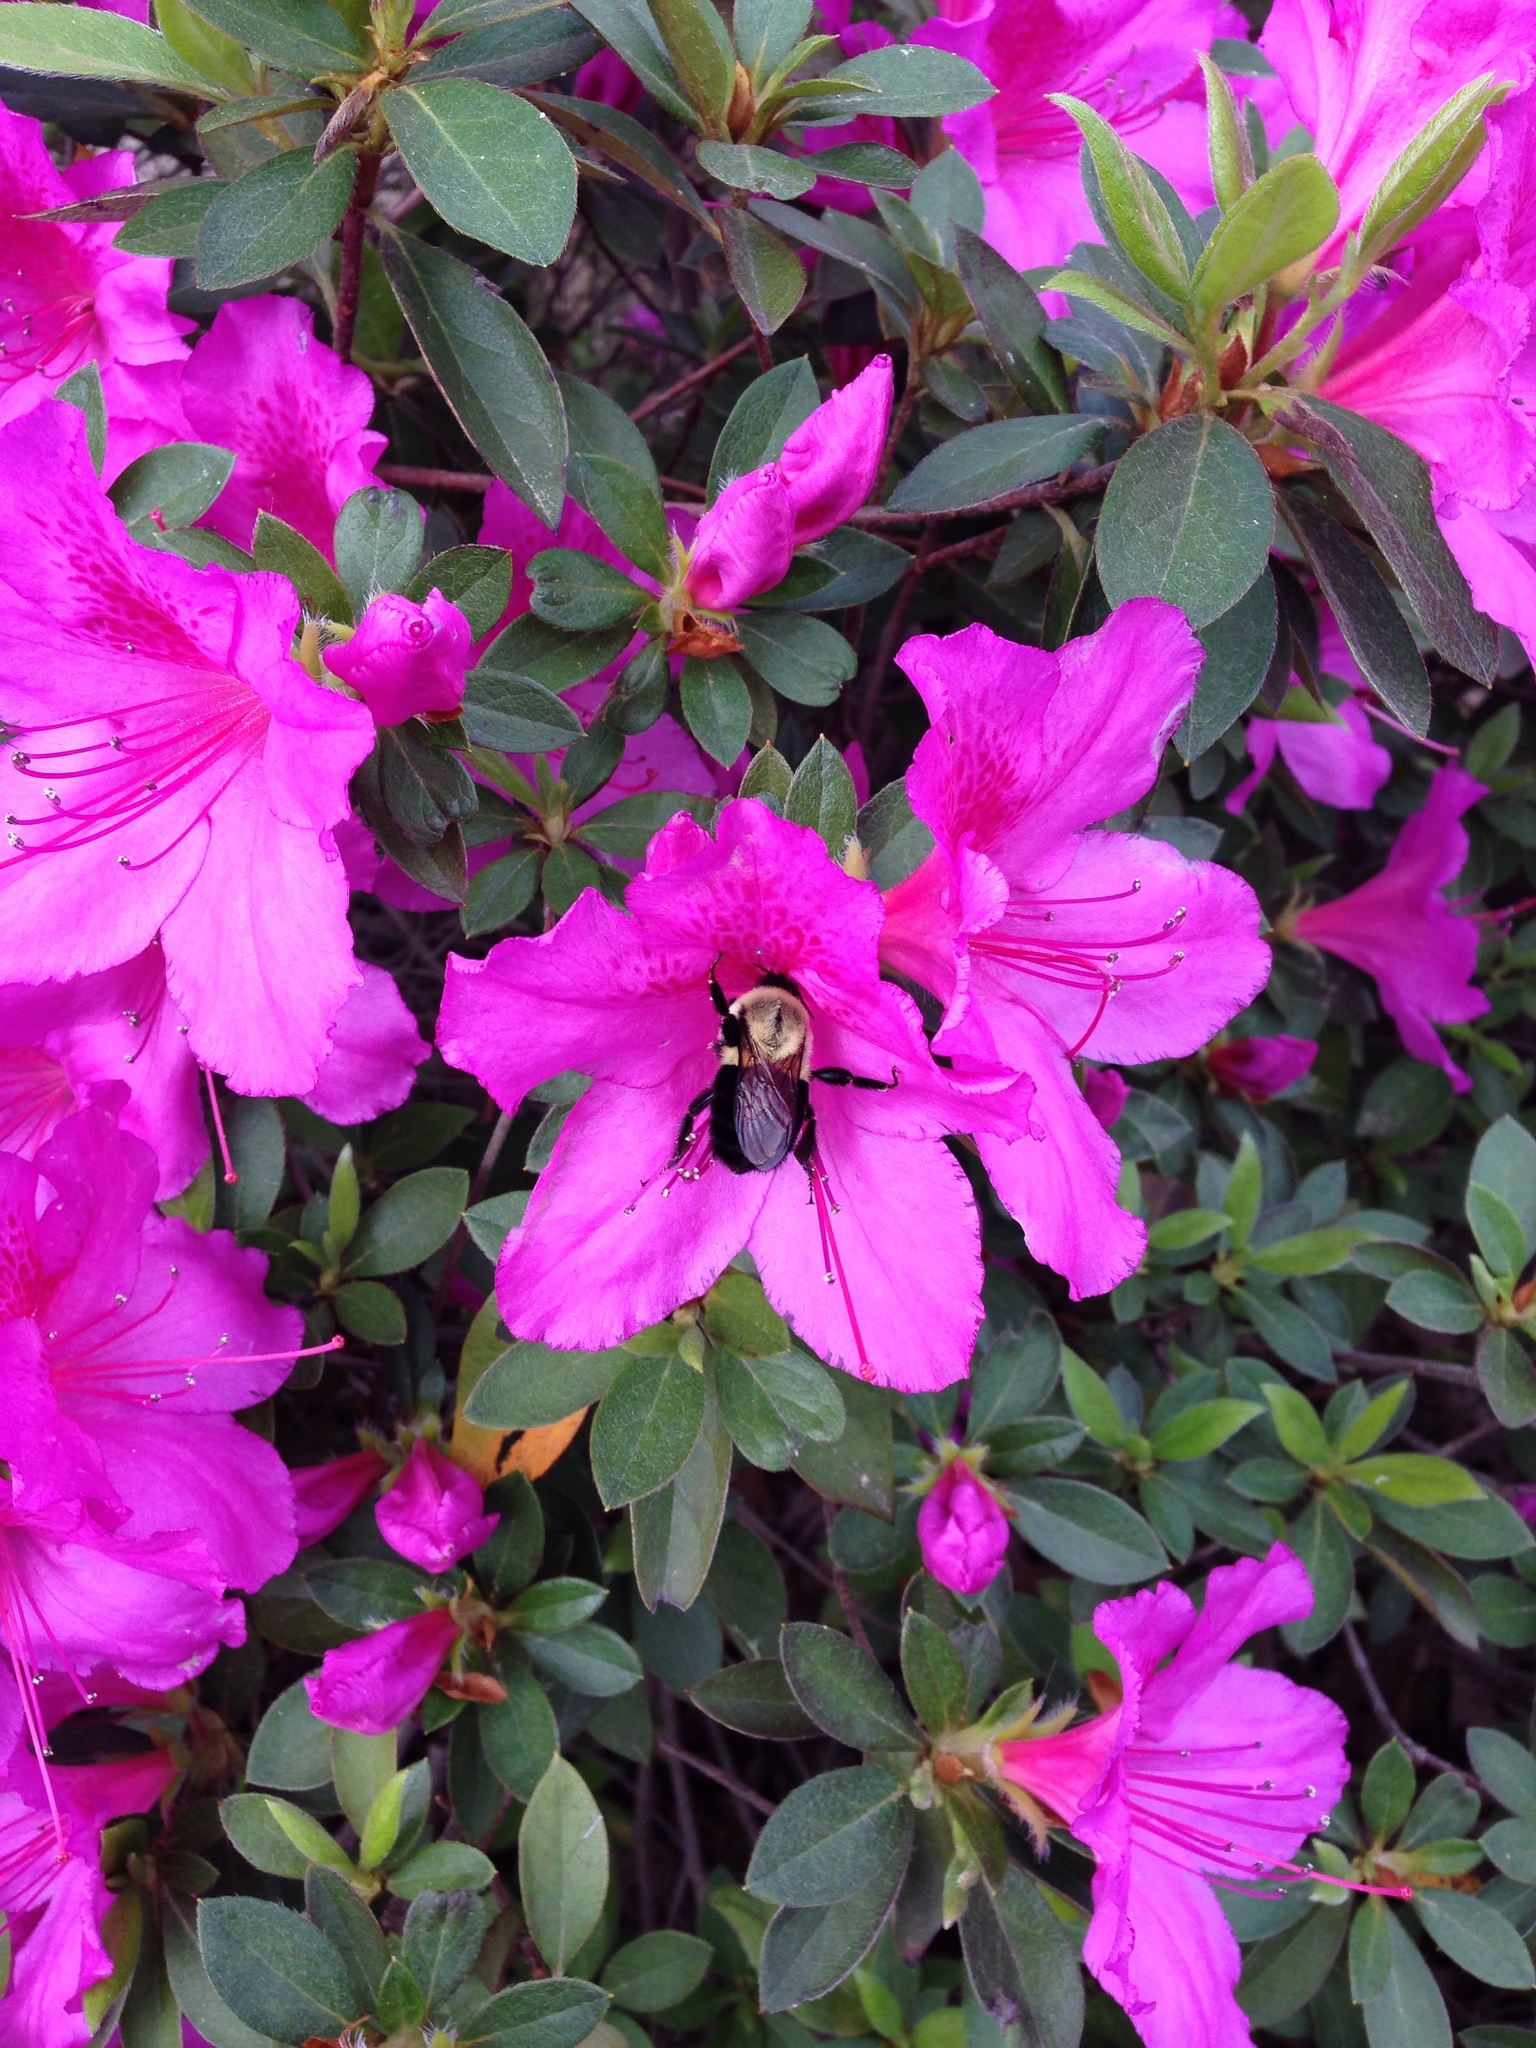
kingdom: Animalia
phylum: Arthropoda
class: Insecta
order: Hymenoptera
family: Apidae
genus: Bombus
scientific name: Bombus impatiens
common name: Common eastern bumble bee
